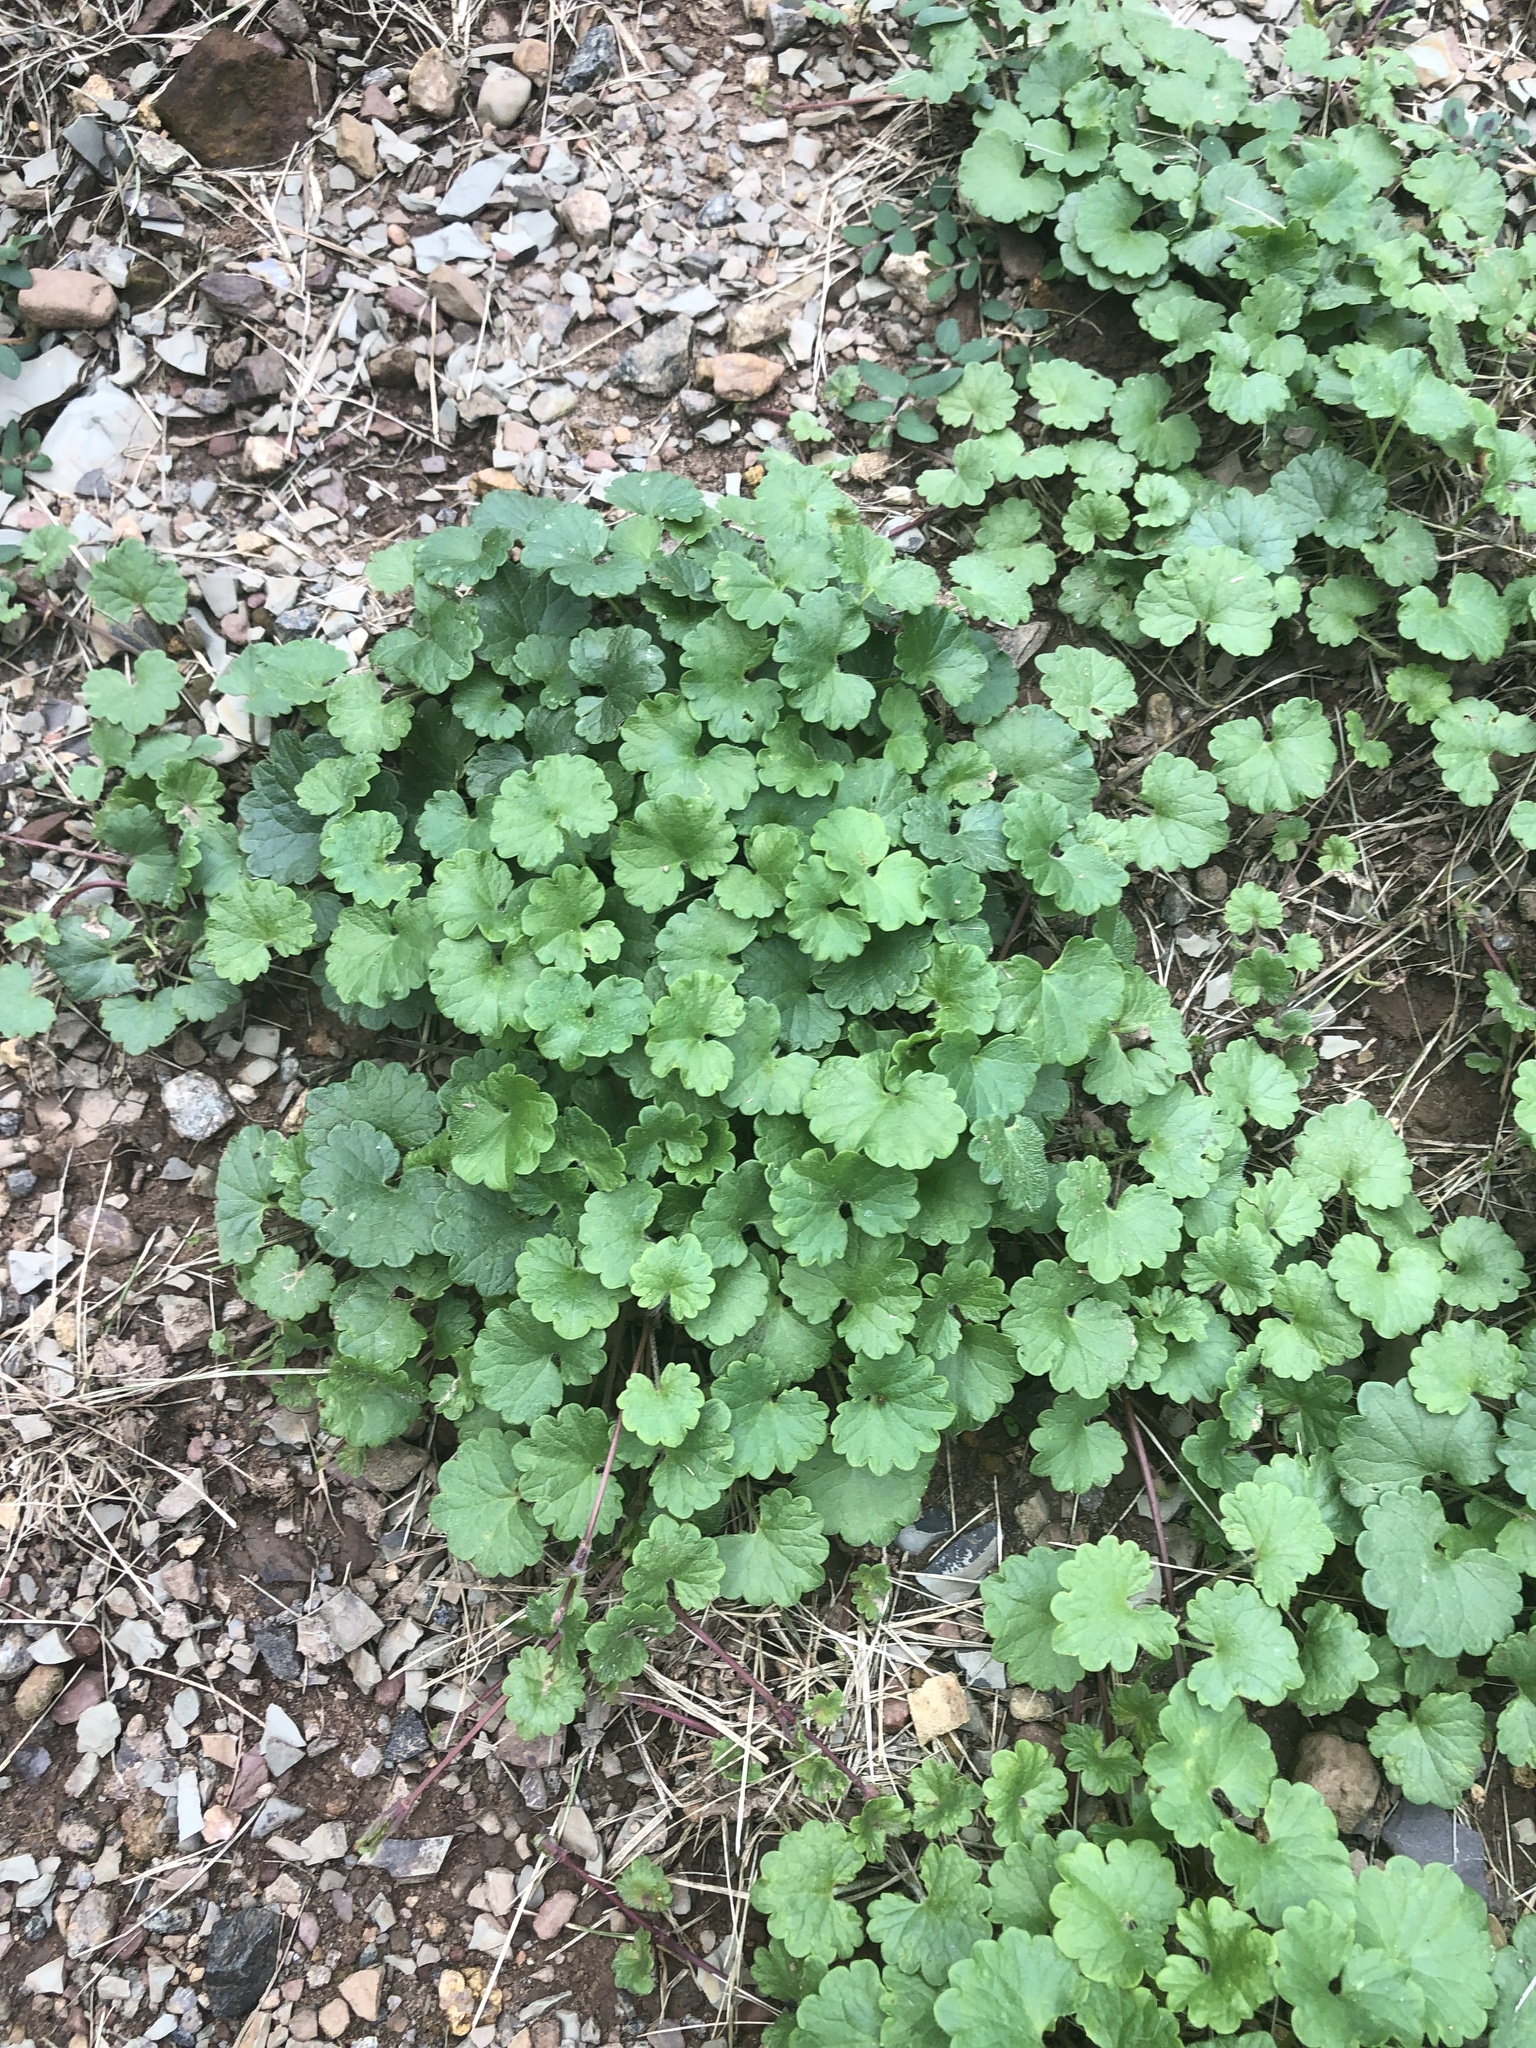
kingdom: Plantae
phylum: Tracheophyta
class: Magnoliopsida
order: Lamiales
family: Lamiaceae
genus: Glechoma
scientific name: Glechoma hederacea
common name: Ground ivy
